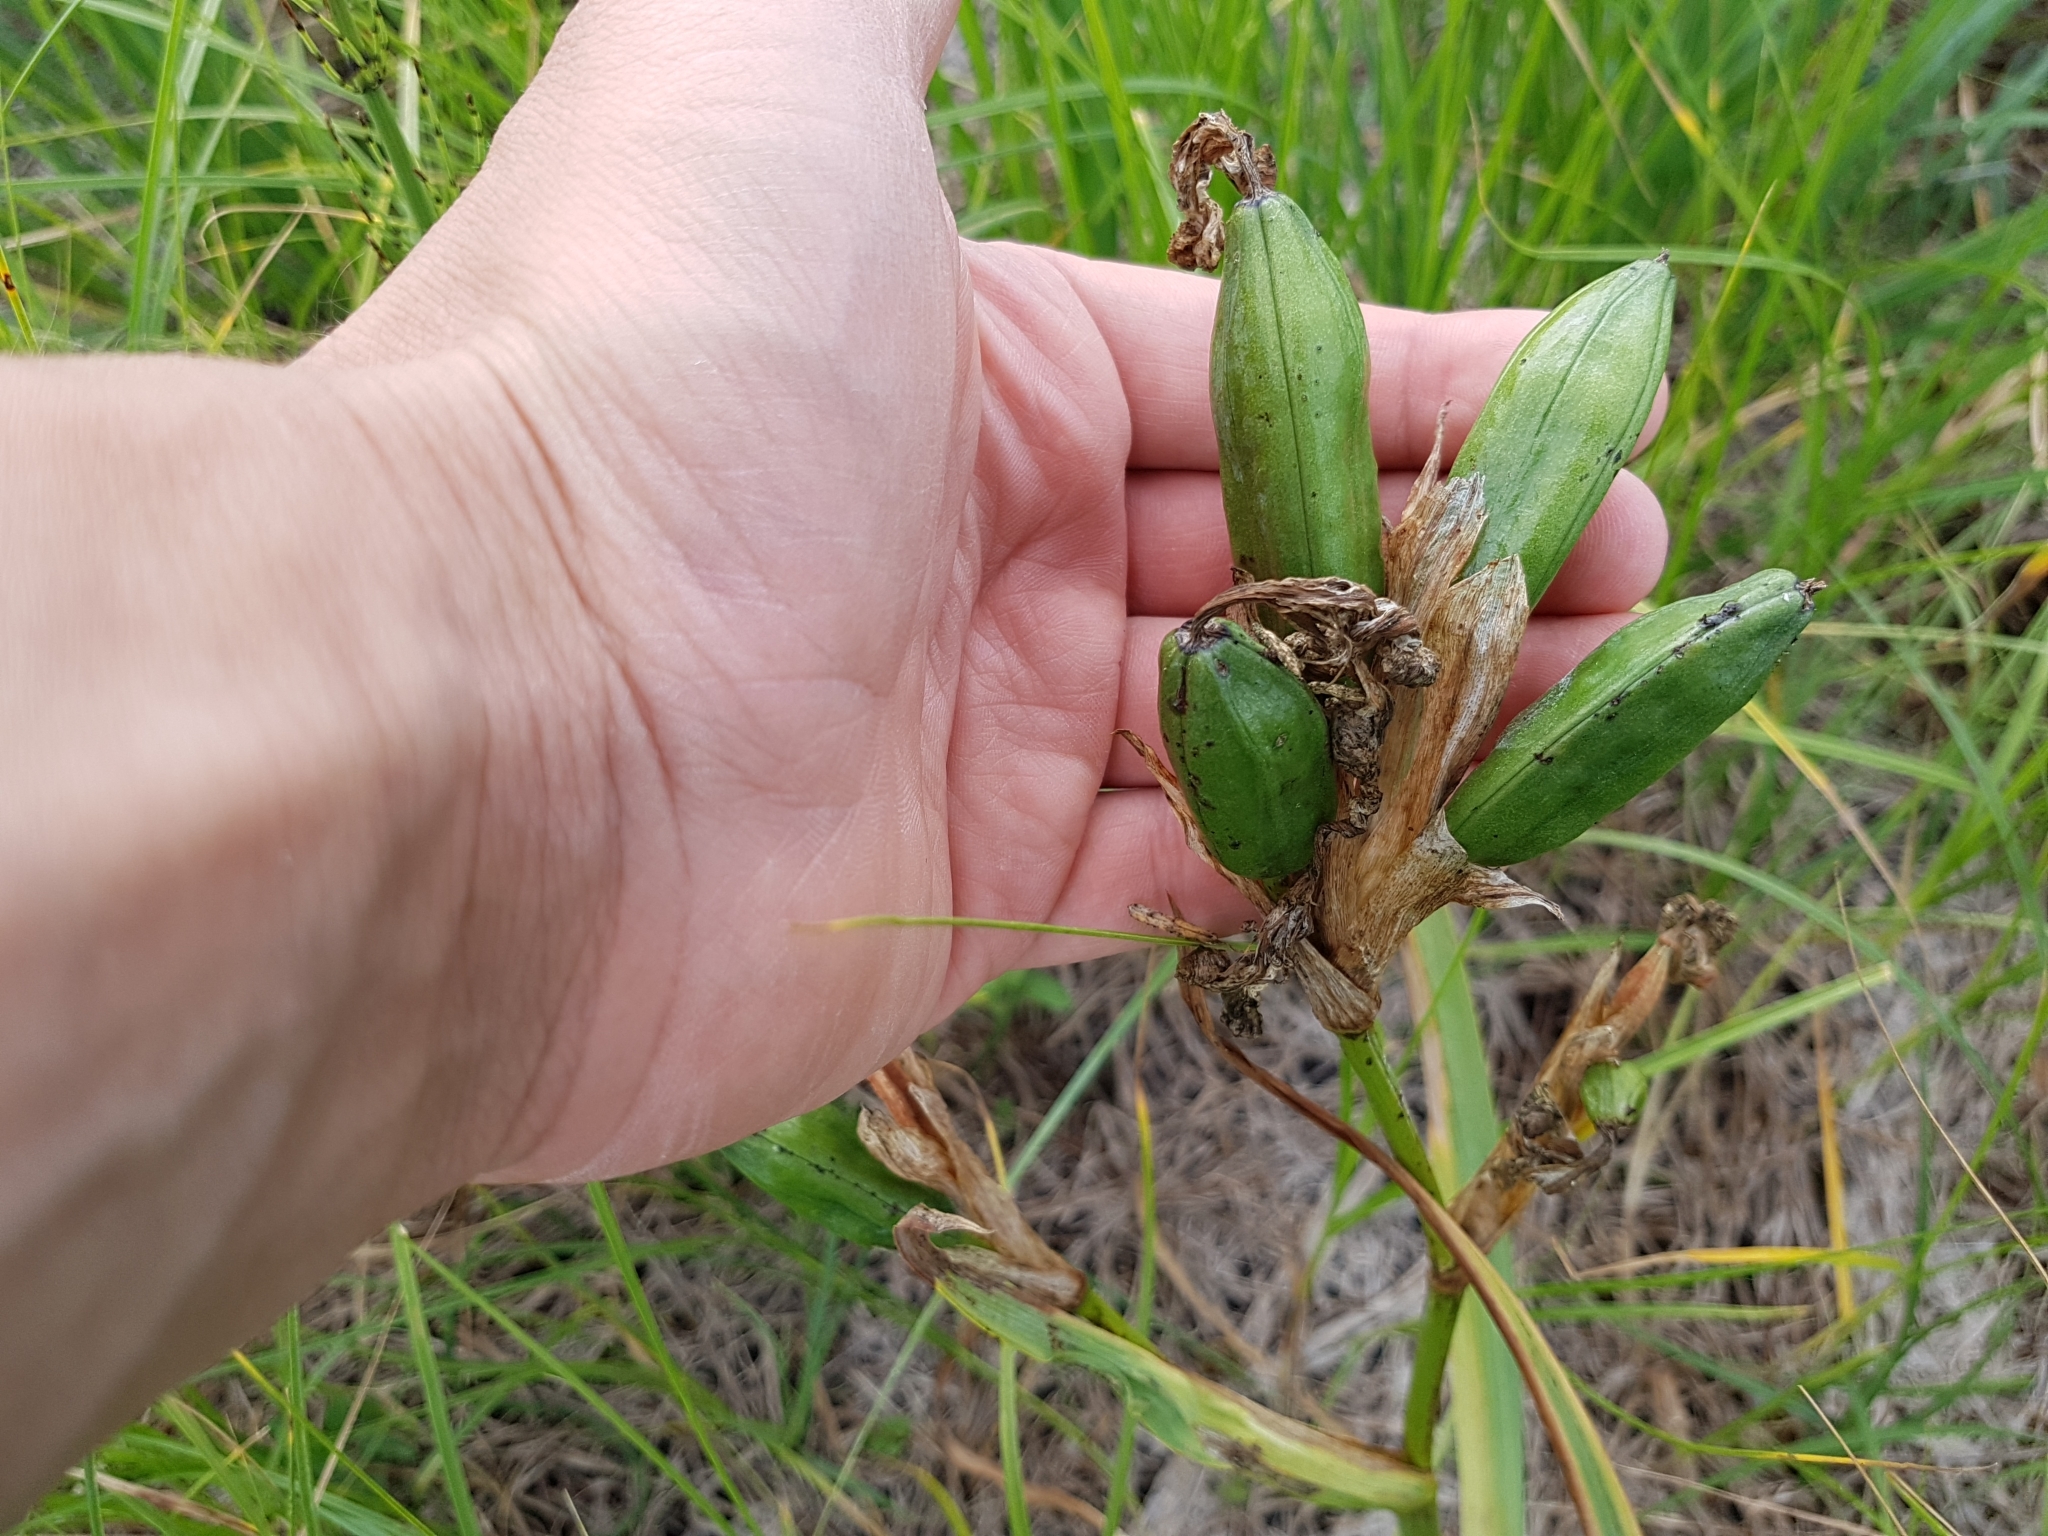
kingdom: Plantae
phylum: Tracheophyta
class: Liliopsida
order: Asparagales
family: Iridaceae
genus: Iris
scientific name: Iris pseudacorus
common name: Yellow flag
